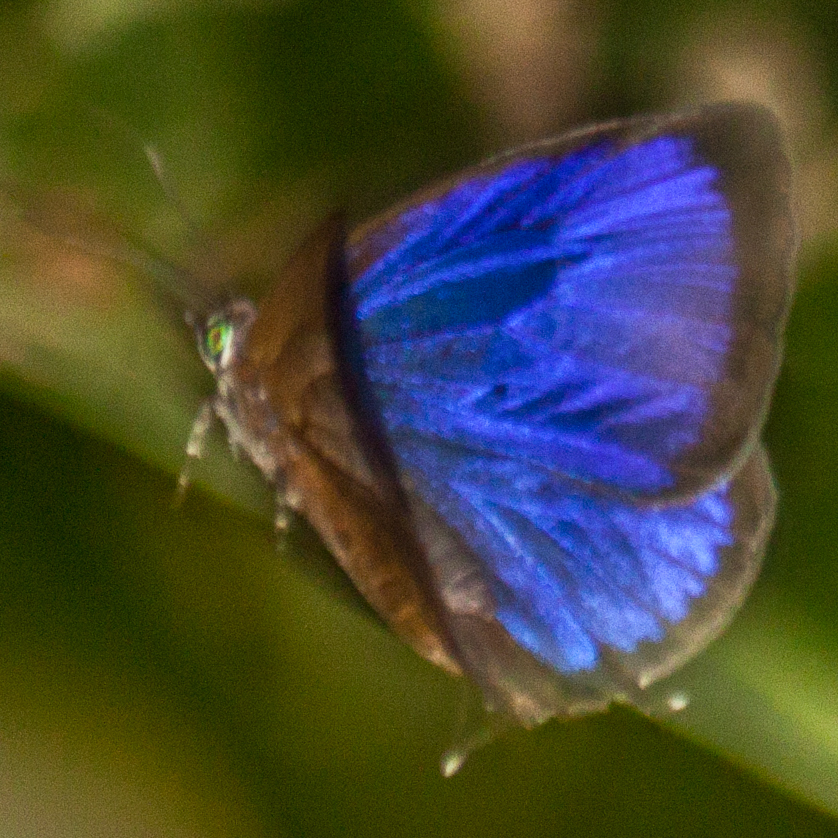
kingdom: Animalia
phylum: Arthropoda
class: Insecta
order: Lepidoptera
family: Lycaenidae
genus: Arhopala
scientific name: Arhopala elopura
